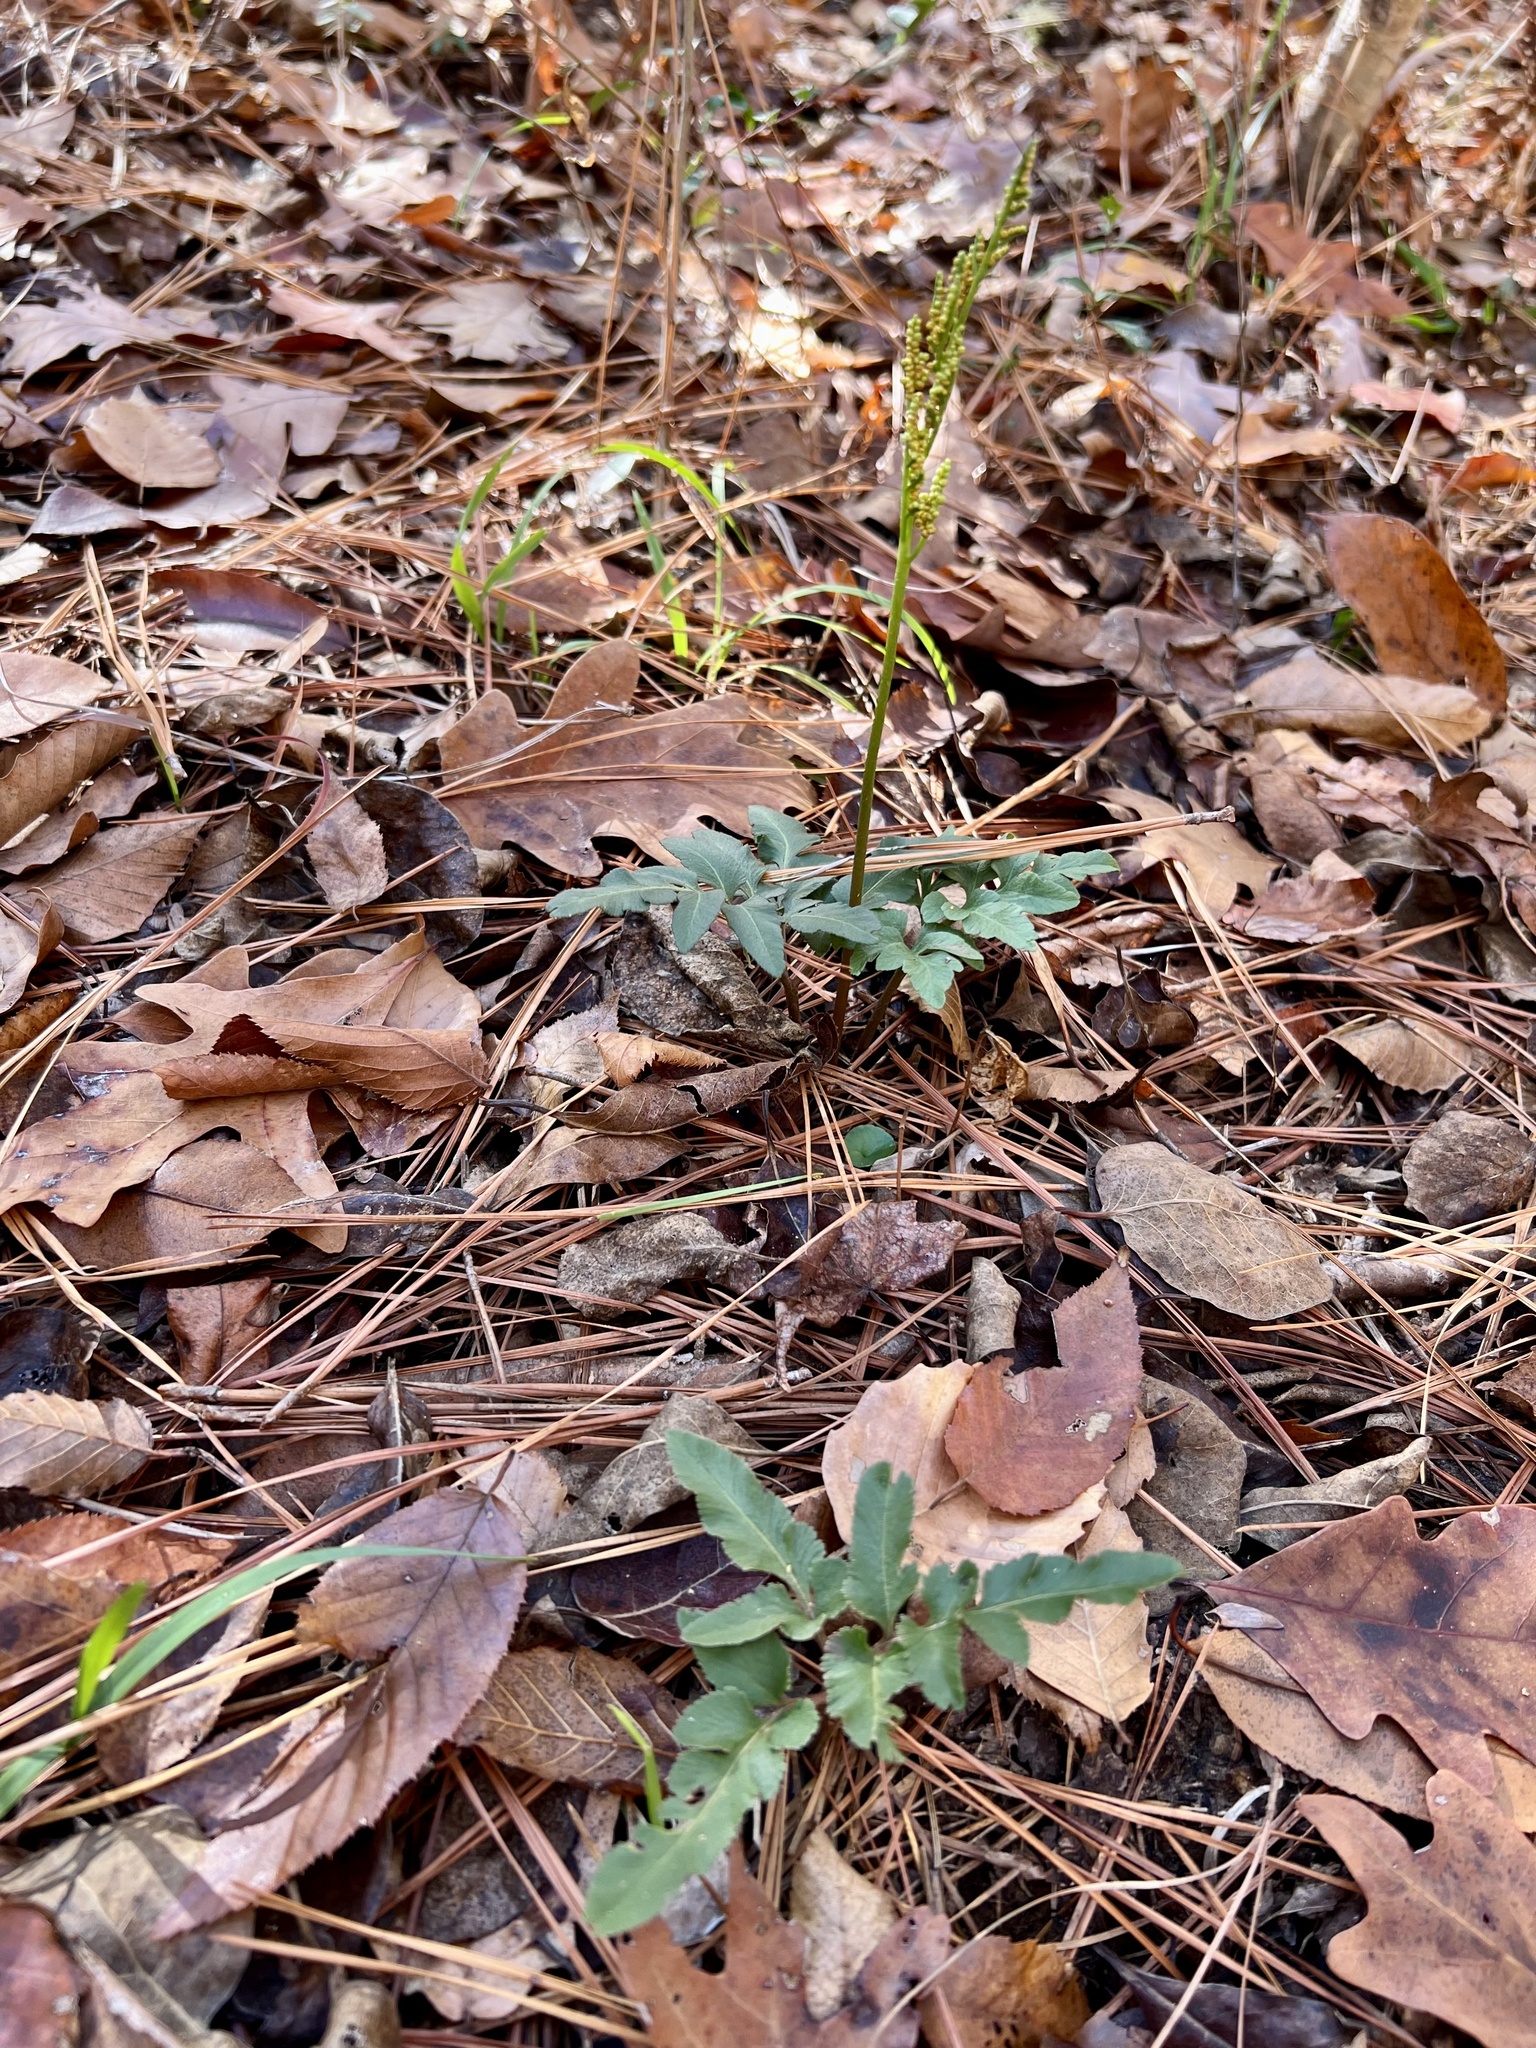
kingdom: Plantae
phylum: Tracheophyta
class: Polypodiopsida
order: Ophioglossales
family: Ophioglossaceae
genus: Sceptridium
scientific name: Sceptridium biternatum
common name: Sparse-lobed grapefern
